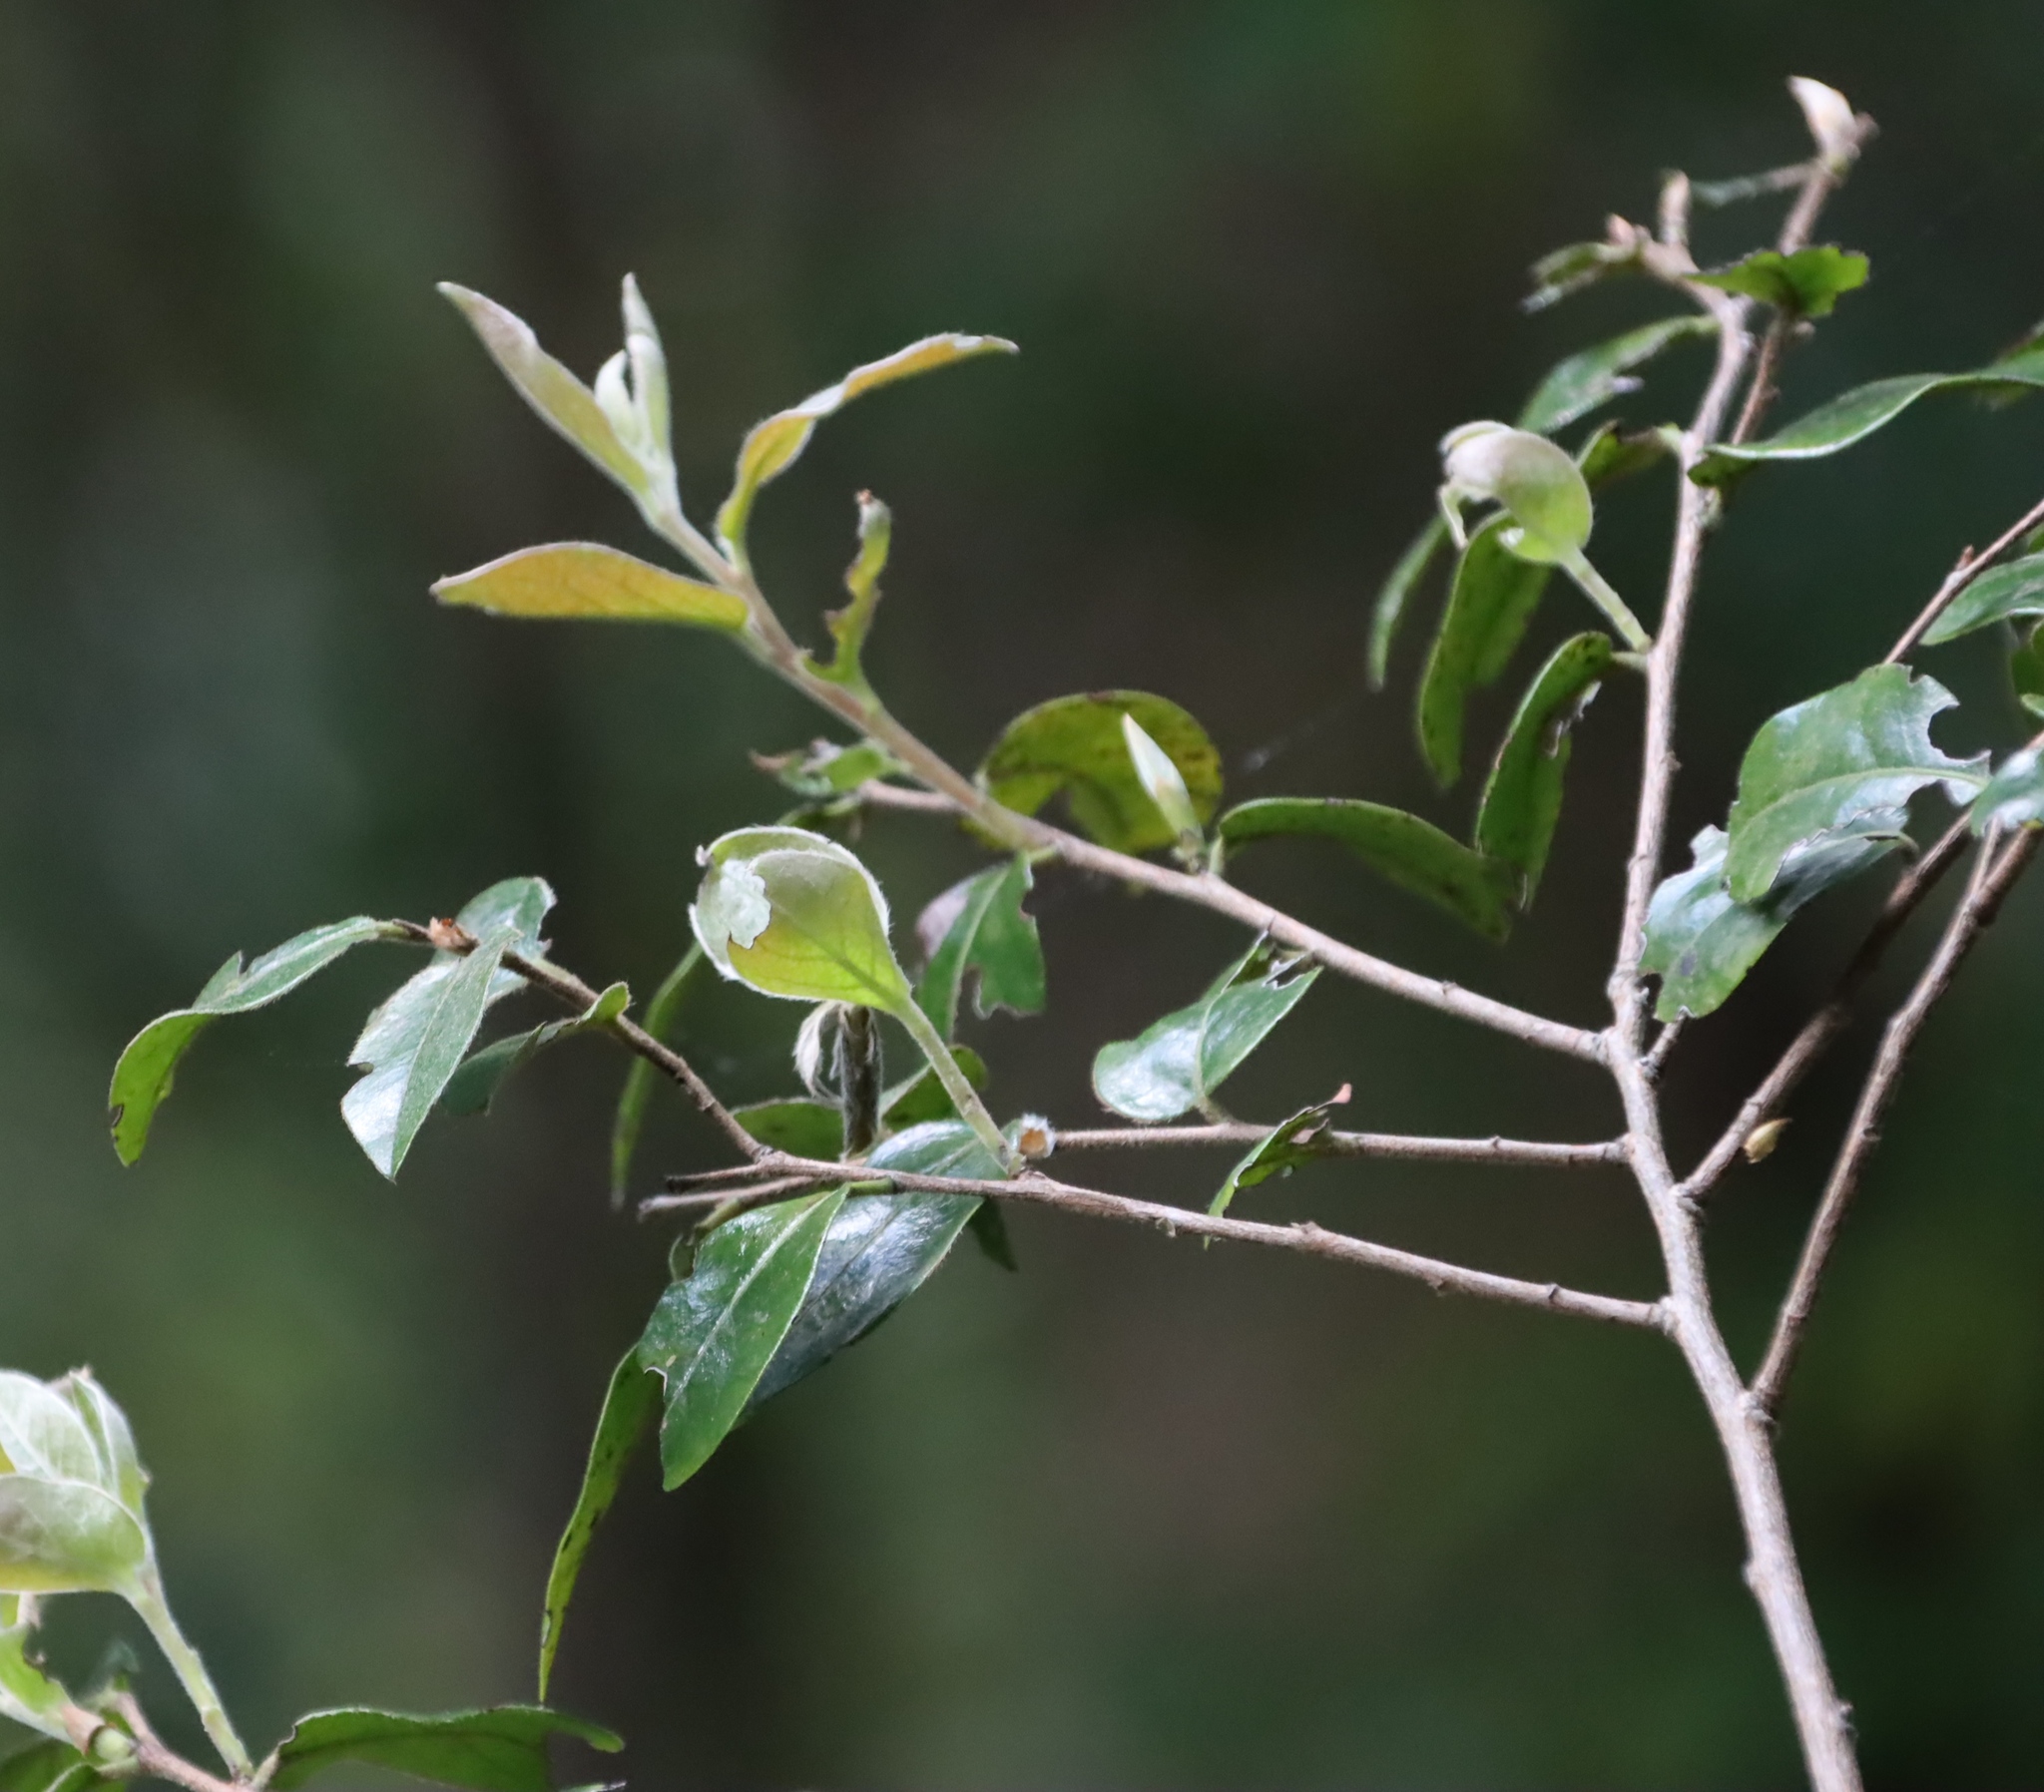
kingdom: Plantae
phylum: Tracheophyta
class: Magnoliopsida
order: Ericales
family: Ebenaceae
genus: Diospyros
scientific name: Diospyros whyteana
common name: Bladder-nut
